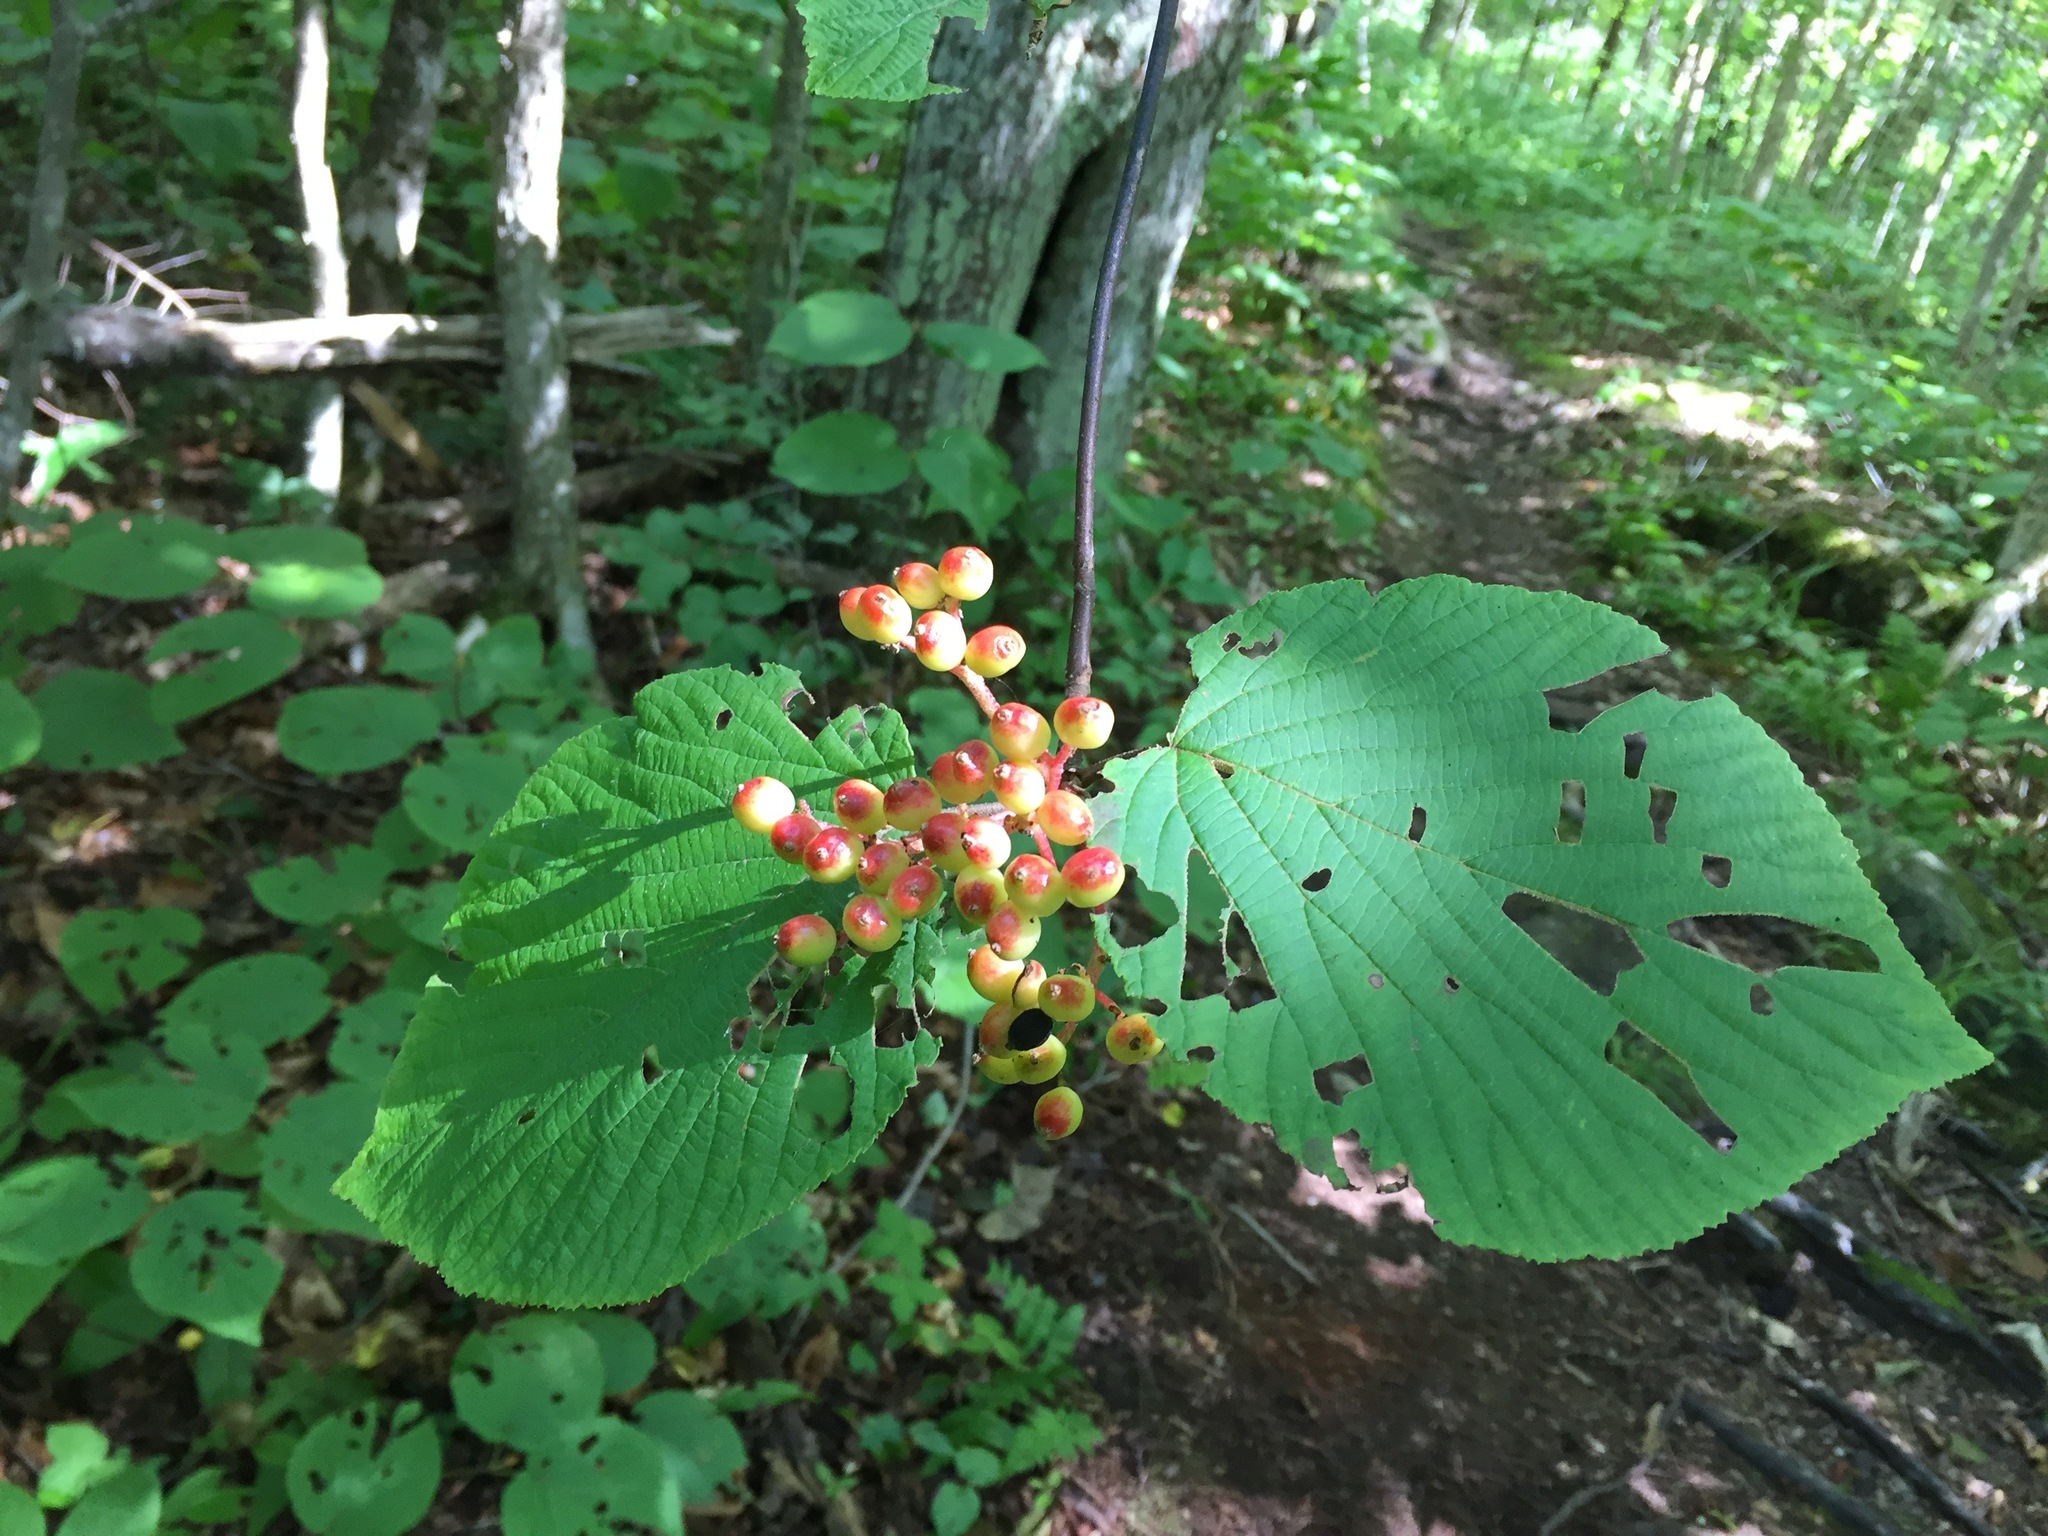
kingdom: Plantae
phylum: Tracheophyta
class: Magnoliopsida
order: Dipsacales
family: Viburnaceae
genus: Viburnum
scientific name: Viburnum lantanoides
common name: Hobblebush
